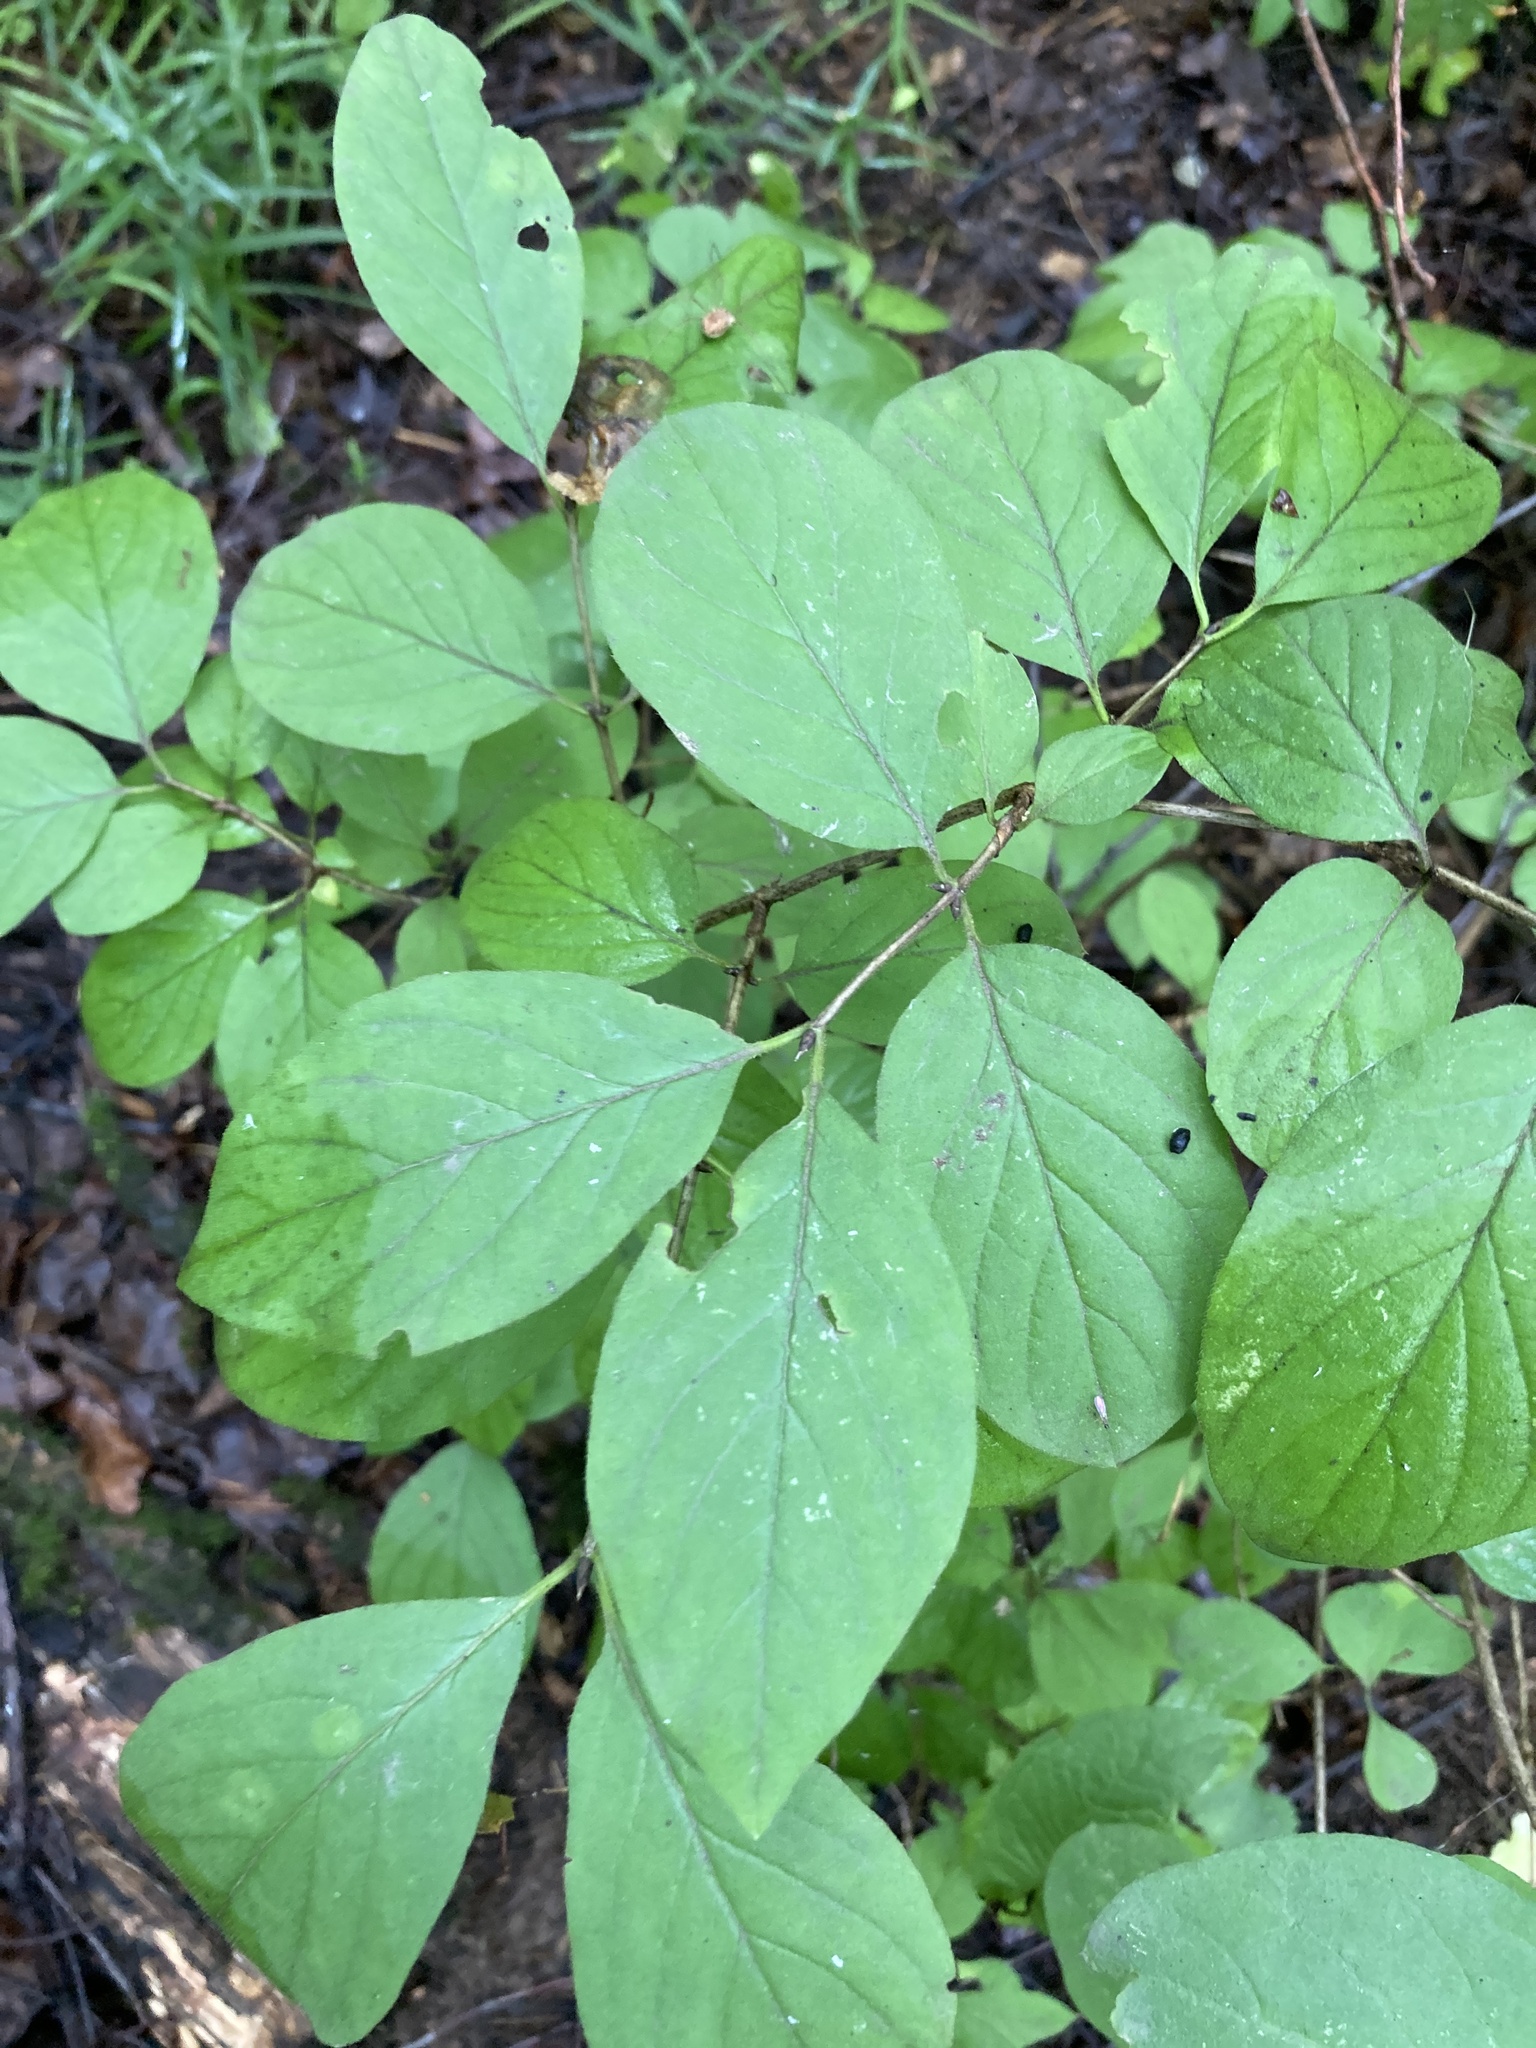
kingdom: Plantae
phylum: Tracheophyta
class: Magnoliopsida
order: Dipsacales
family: Caprifoliaceae
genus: Lonicera
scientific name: Lonicera xylosteum
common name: Fly honeysuckle
